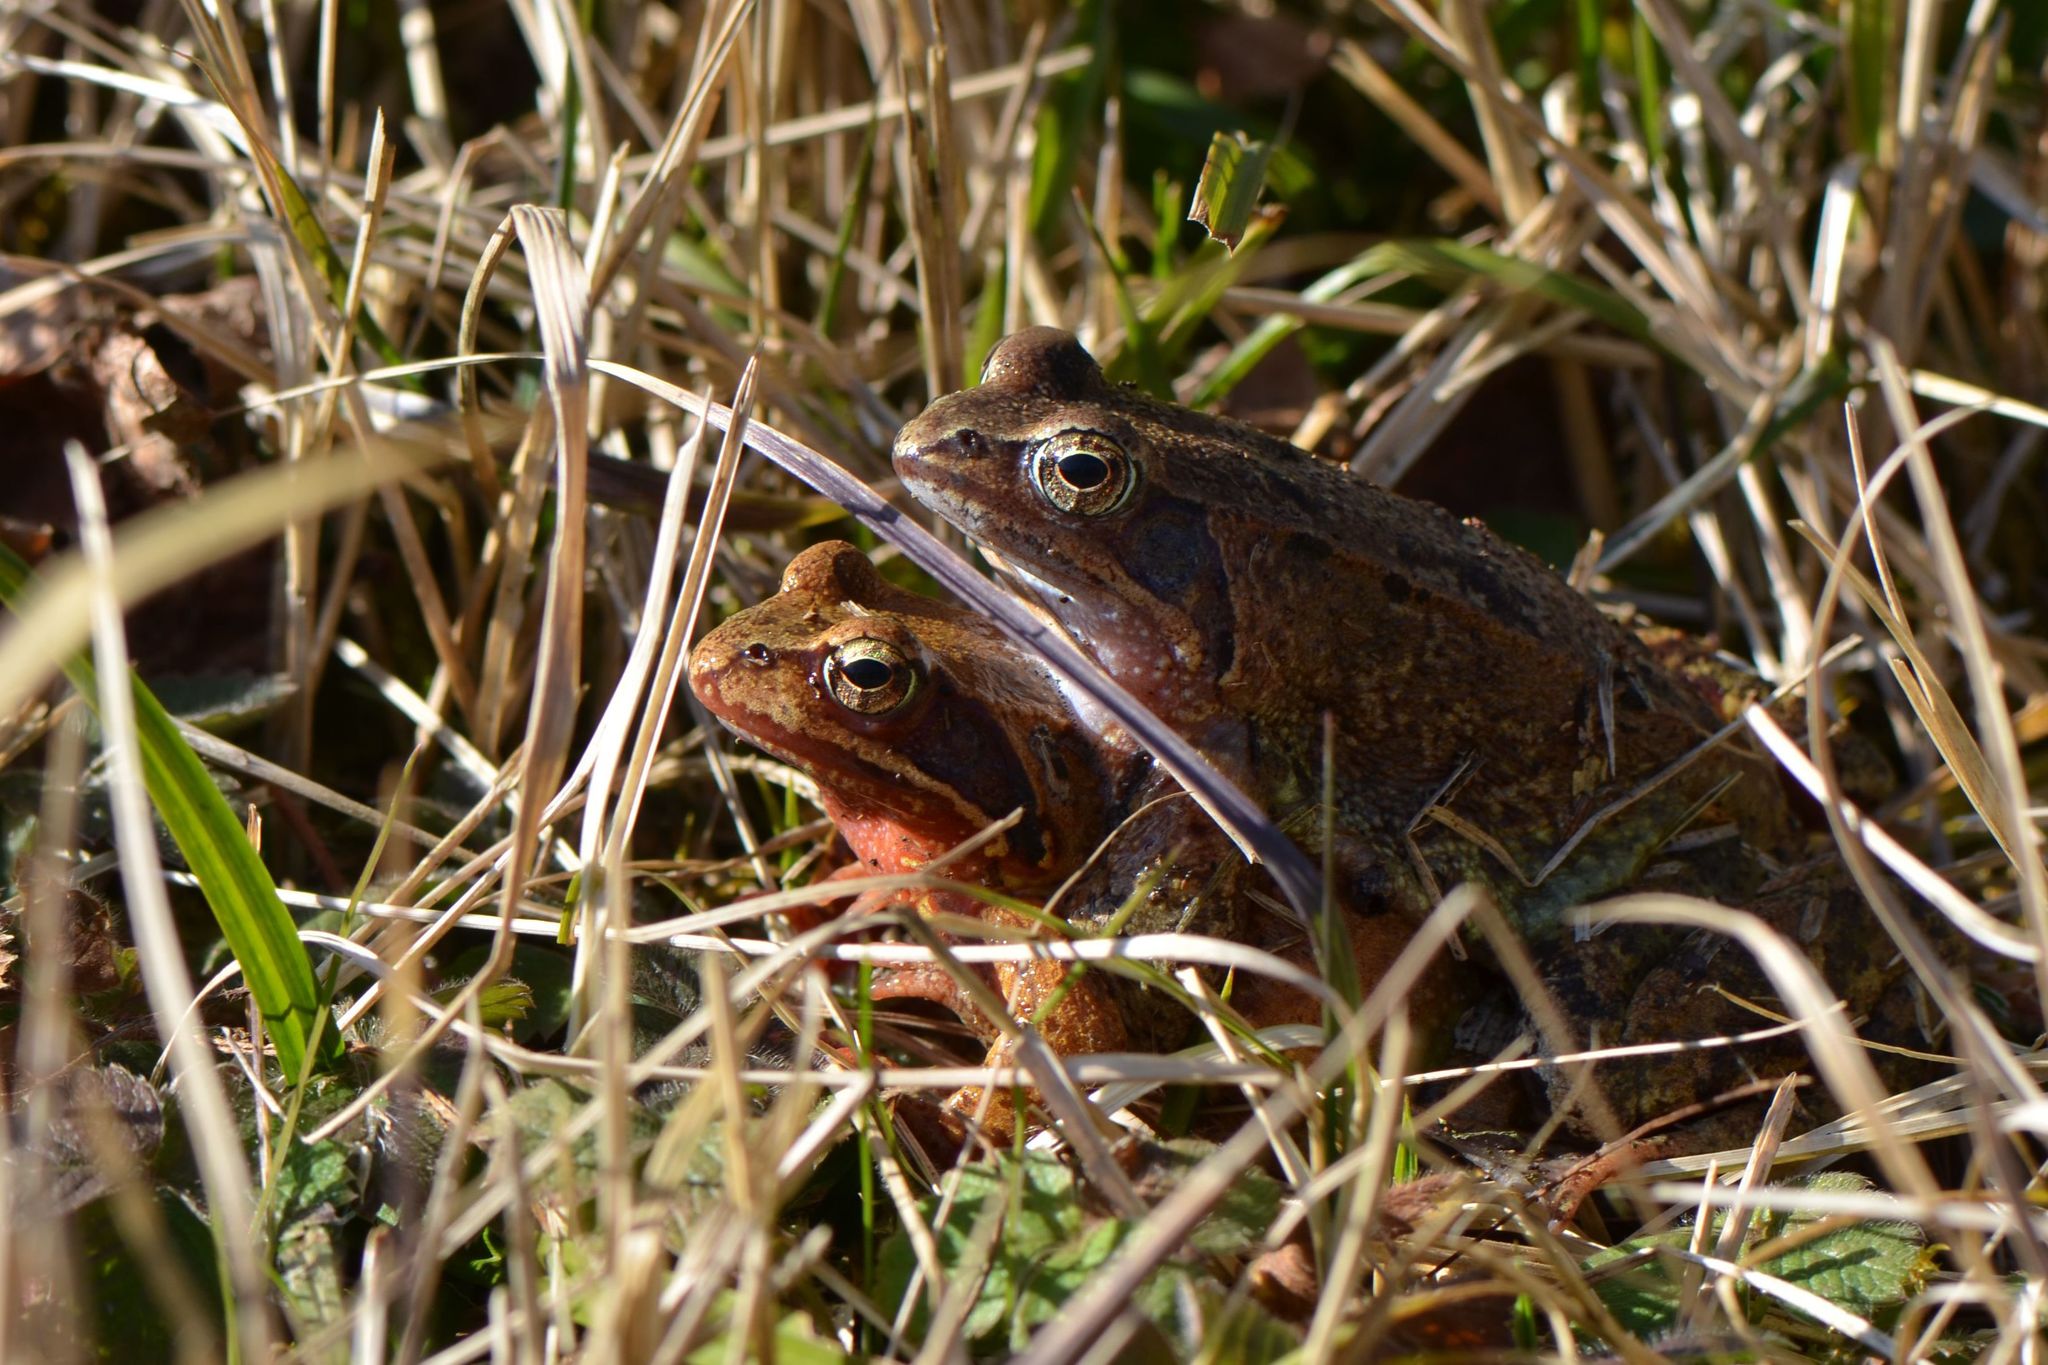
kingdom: Animalia
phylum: Chordata
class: Amphibia
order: Anura
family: Ranidae
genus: Rana
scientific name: Rana temporaria
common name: Common frog
